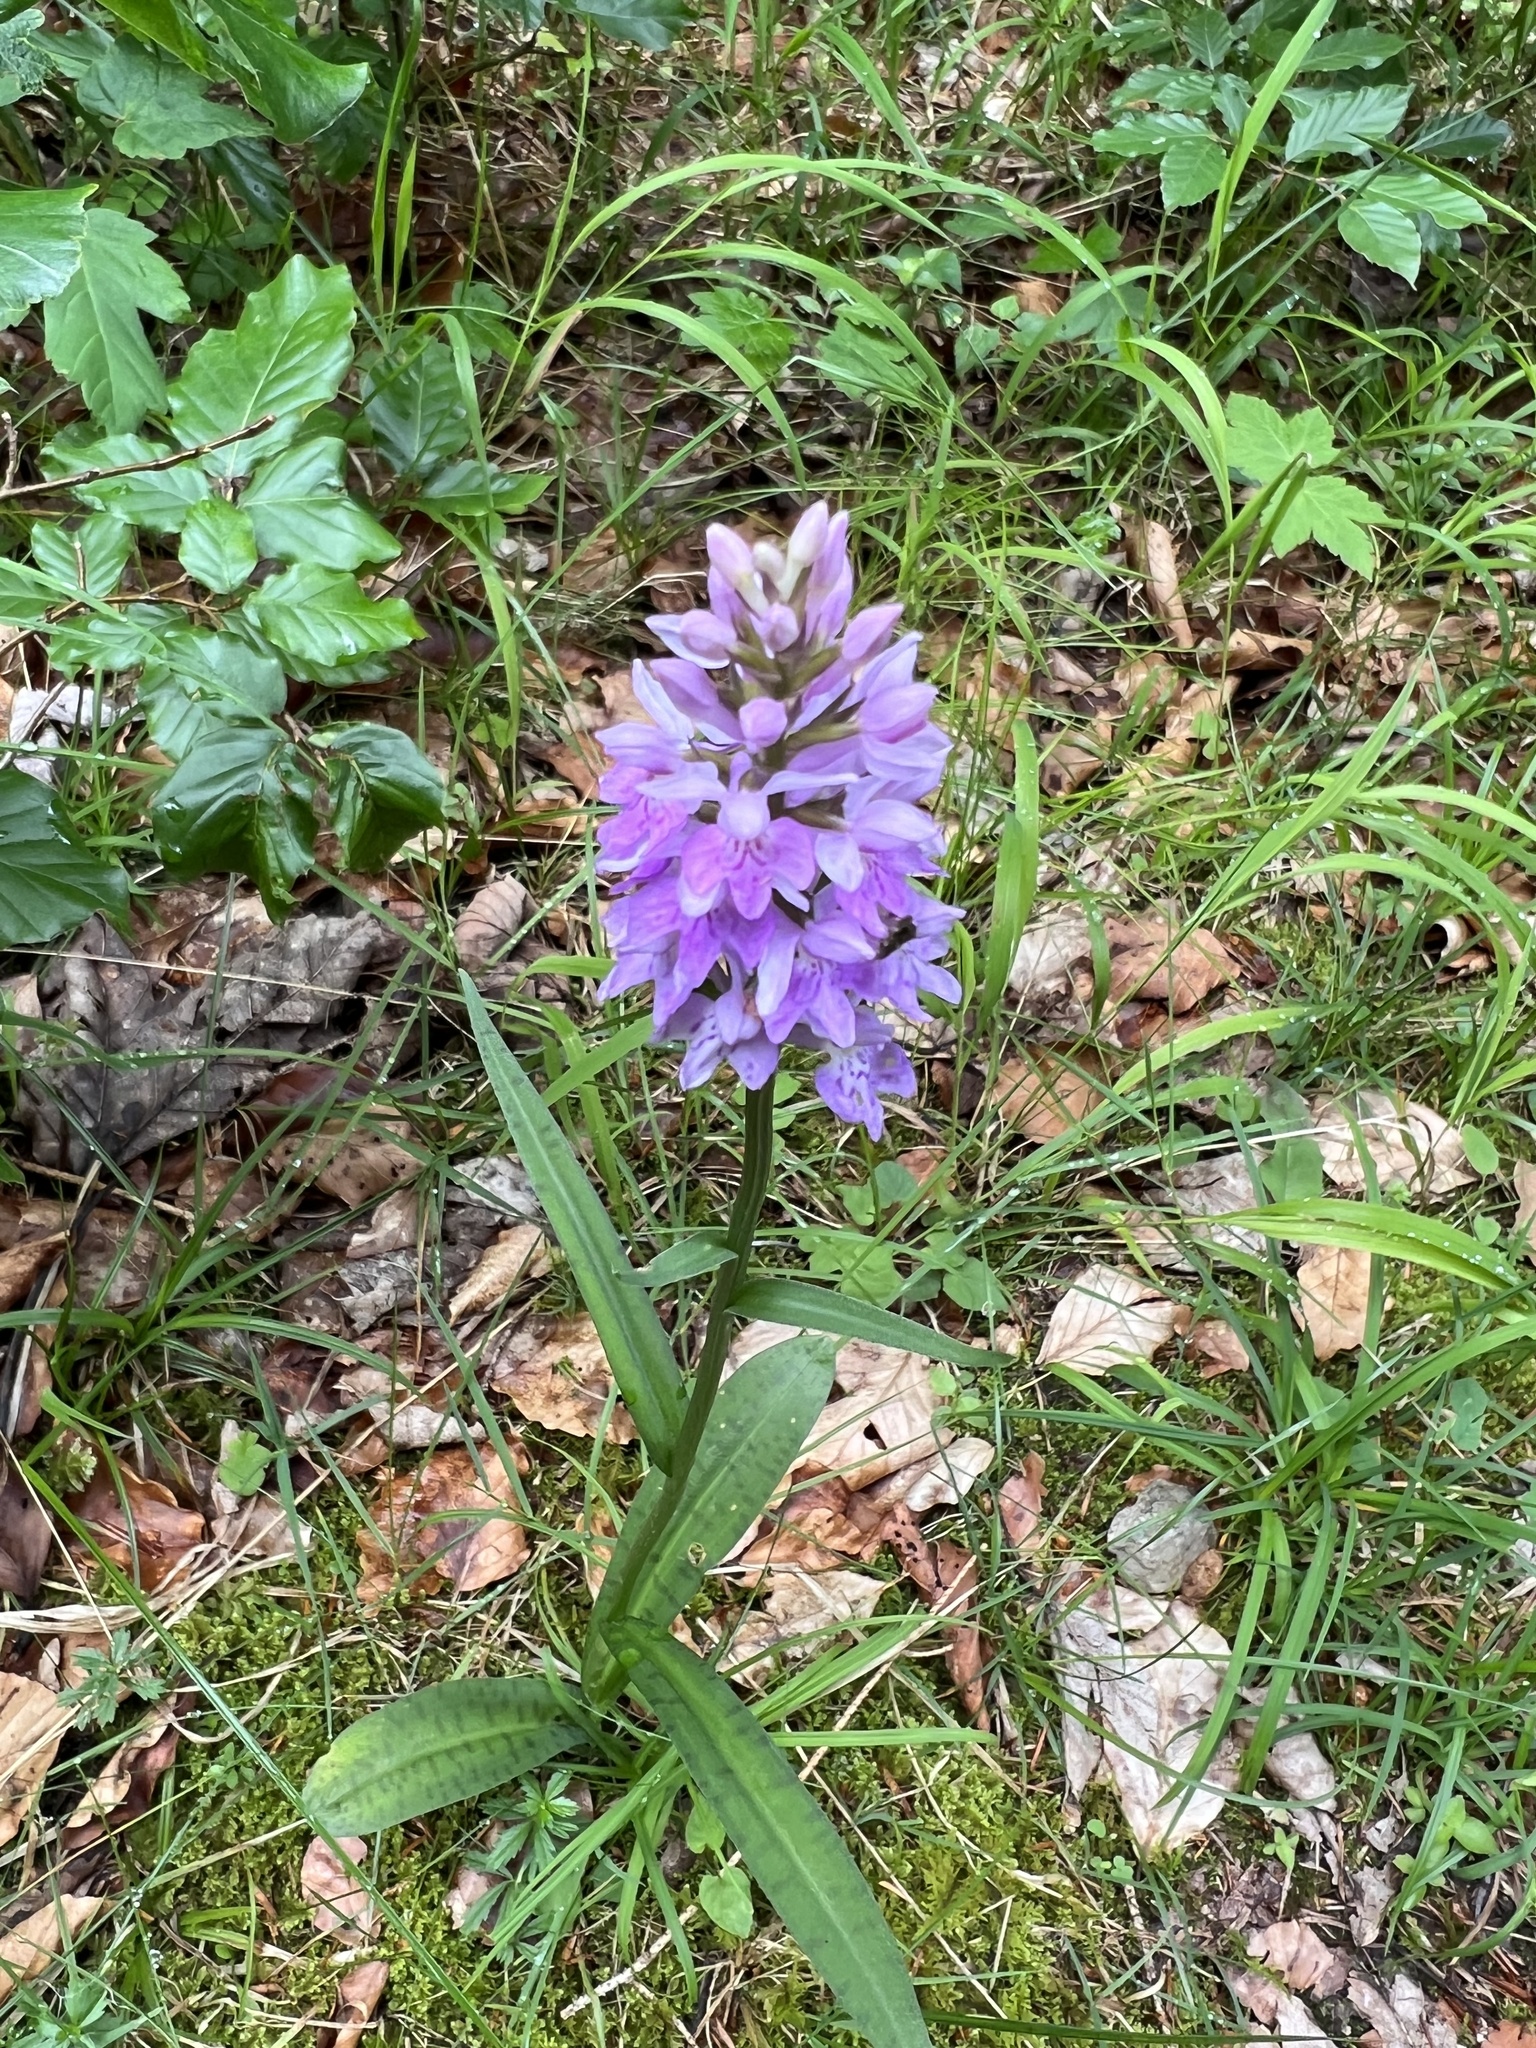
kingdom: Plantae
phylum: Tracheophyta
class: Liliopsida
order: Asparagales
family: Orchidaceae
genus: Dactylorhiza
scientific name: Dactylorhiza maculata
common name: Heath spotted-orchid
